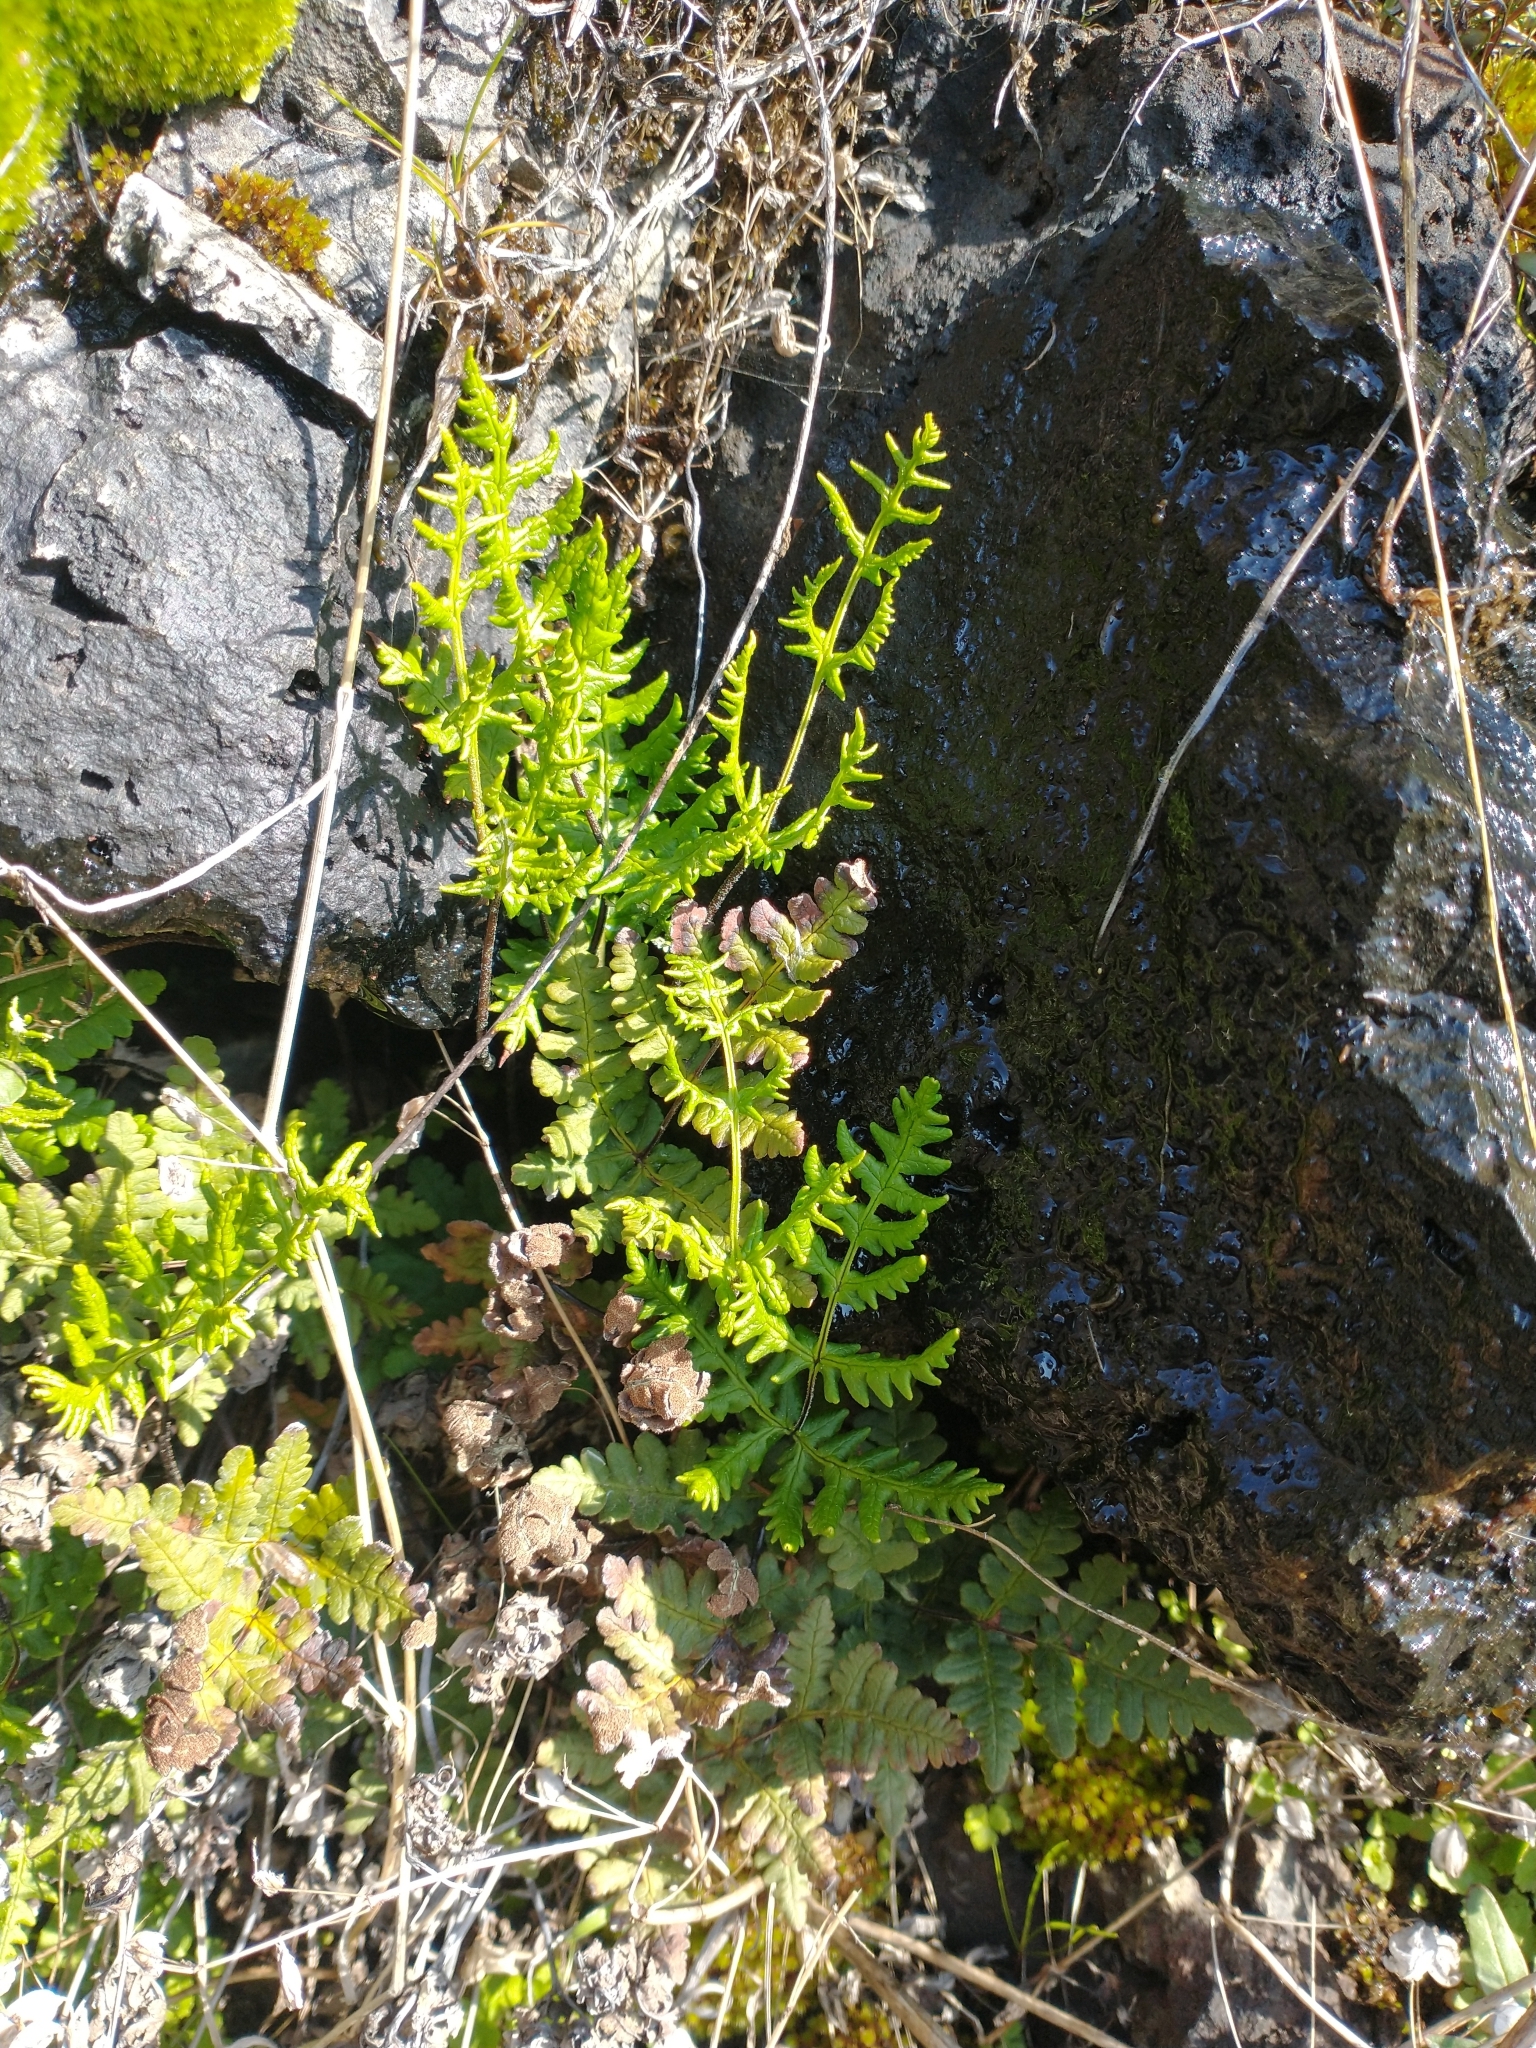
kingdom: Plantae
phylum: Tracheophyta
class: Polypodiopsida
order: Polypodiales
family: Pteridaceae
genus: Pentagramma
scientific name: Pentagramma triangularis
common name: Gold fern
